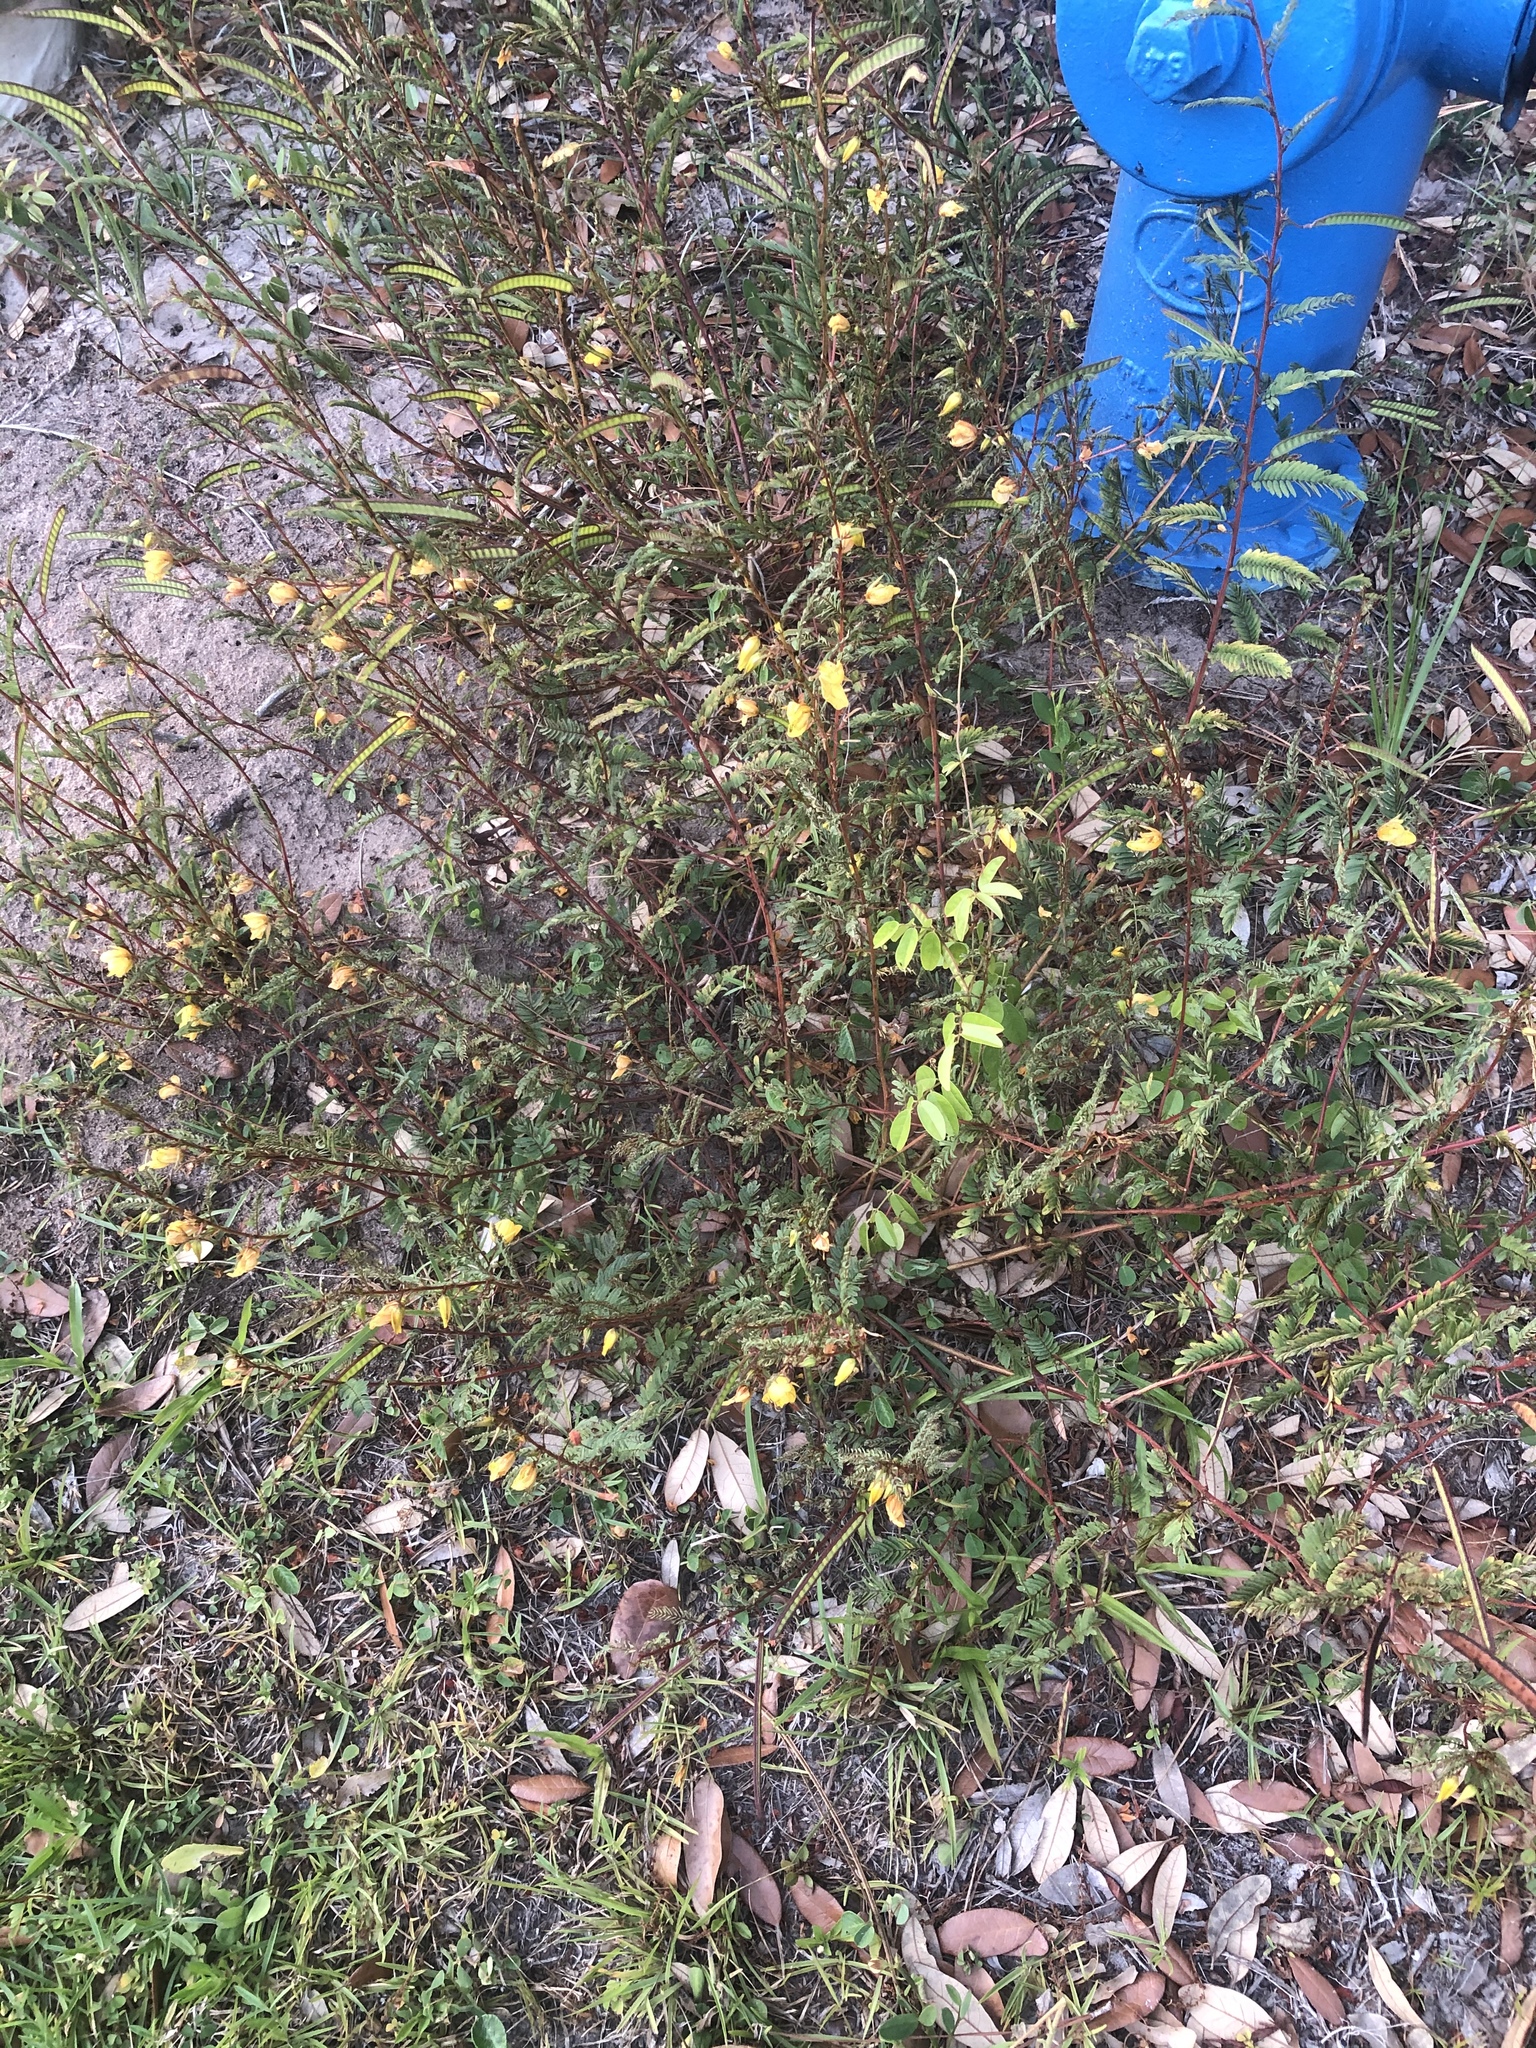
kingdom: Plantae
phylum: Tracheophyta
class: Magnoliopsida
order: Fabales
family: Fabaceae
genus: Chamaecrista
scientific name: Chamaecrista fasciculata
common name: Golden cassia
